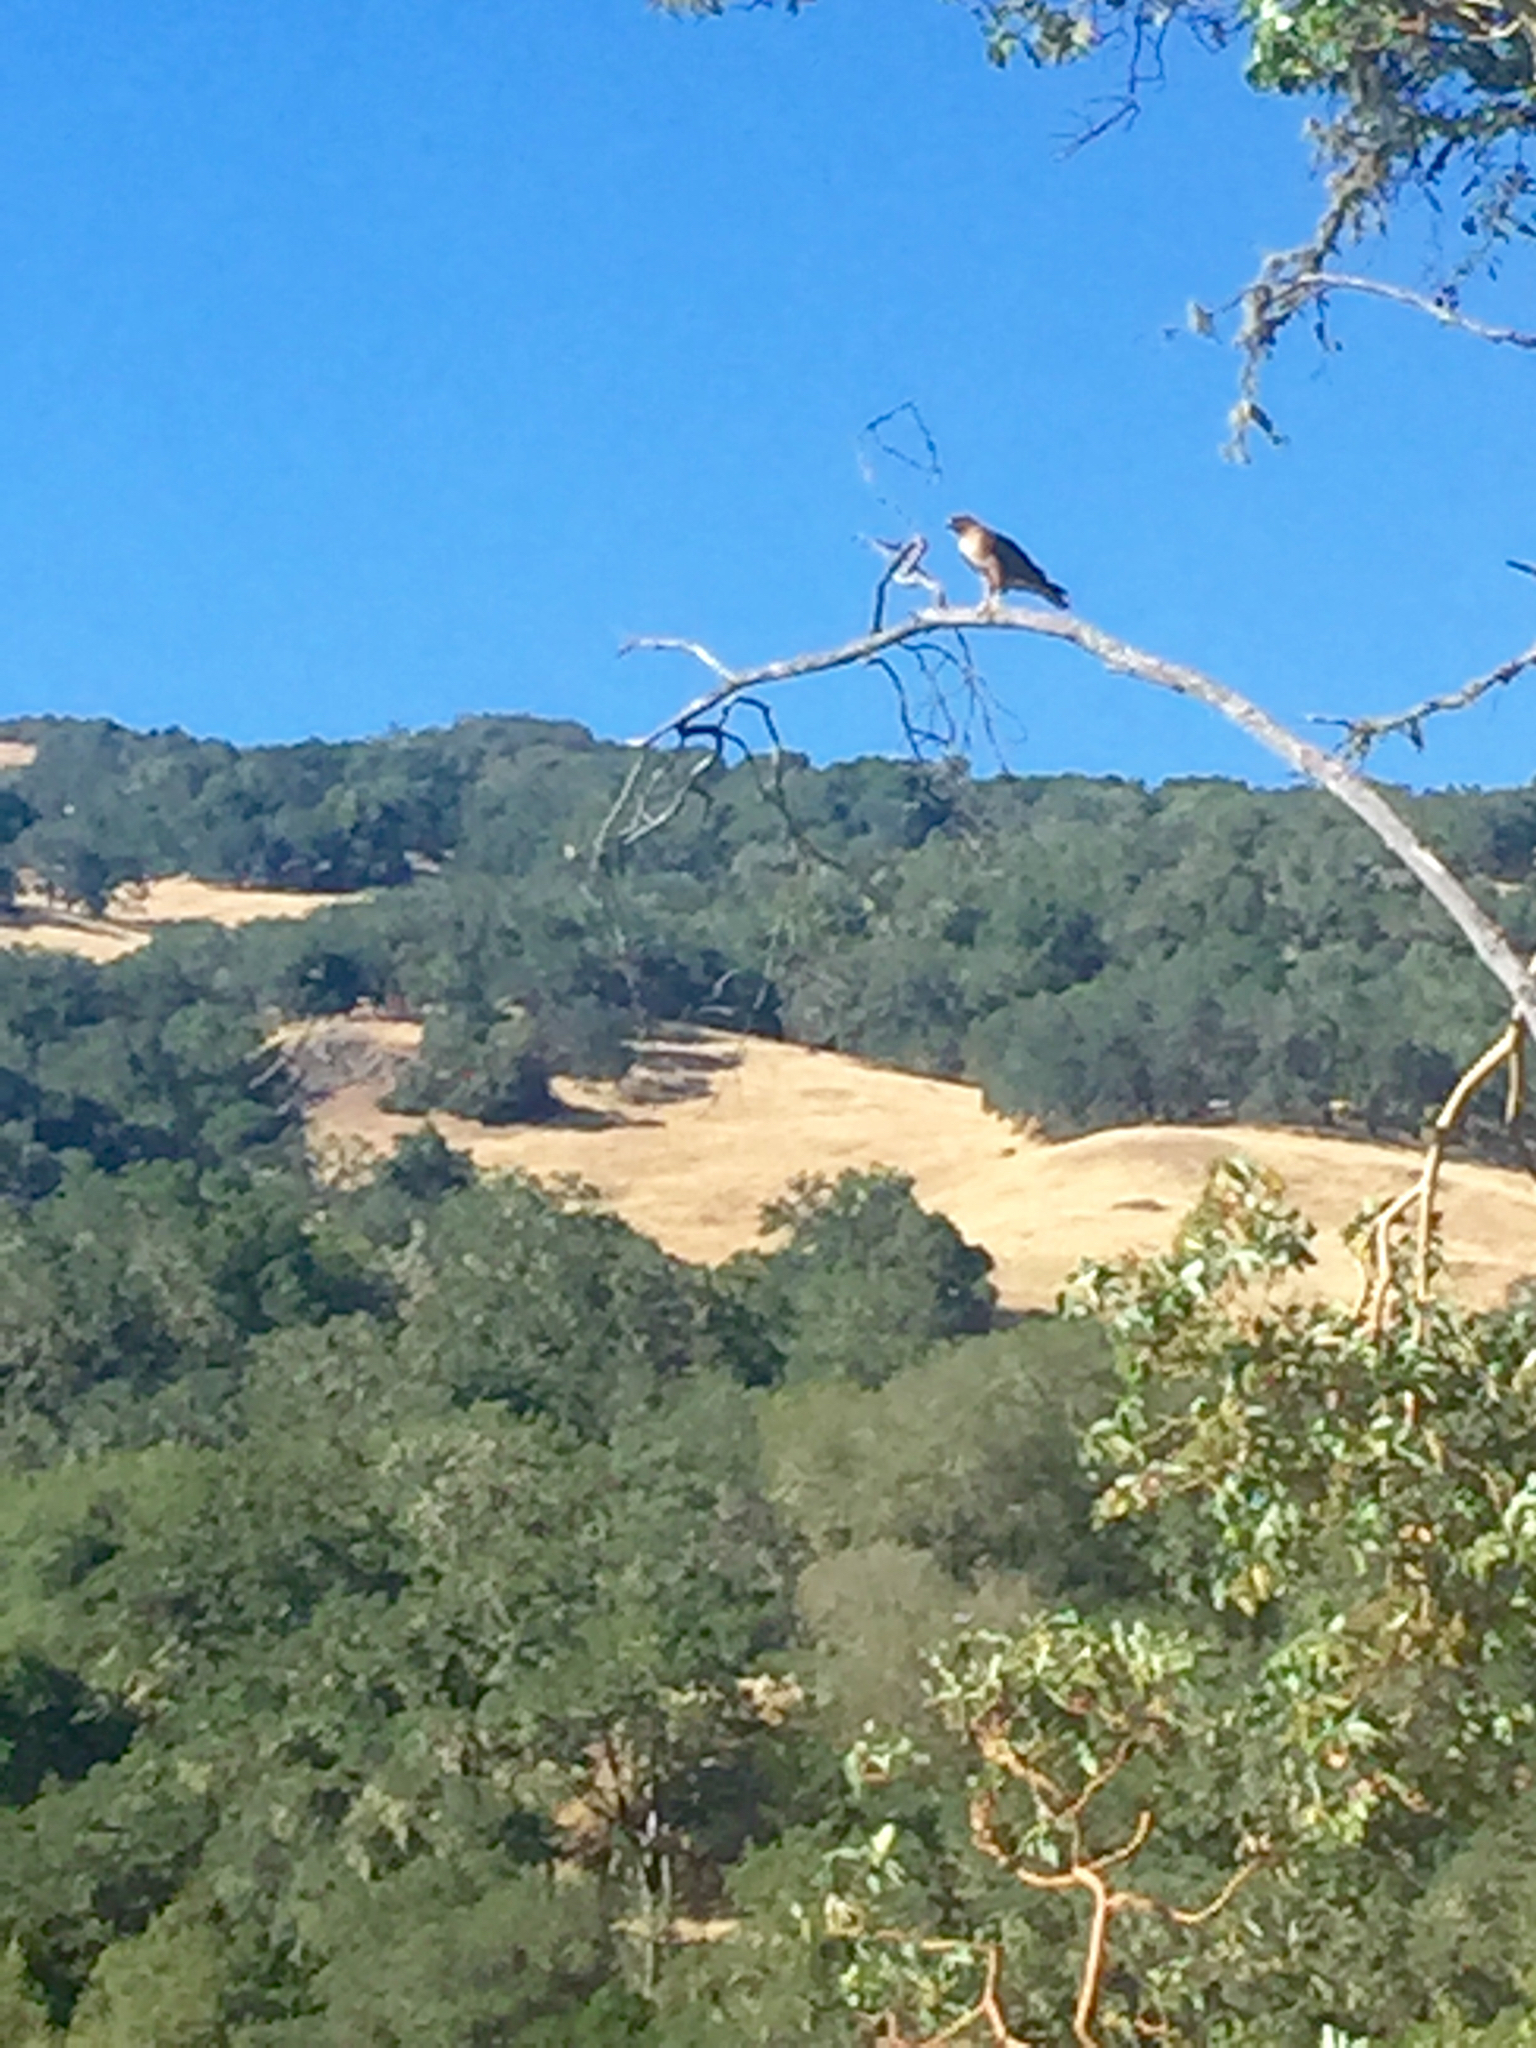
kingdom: Animalia
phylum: Chordata
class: Aves
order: Accipitriformes
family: Accipitridae
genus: Buteo
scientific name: Buteo jamaicensis
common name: Red-tailed hawk
